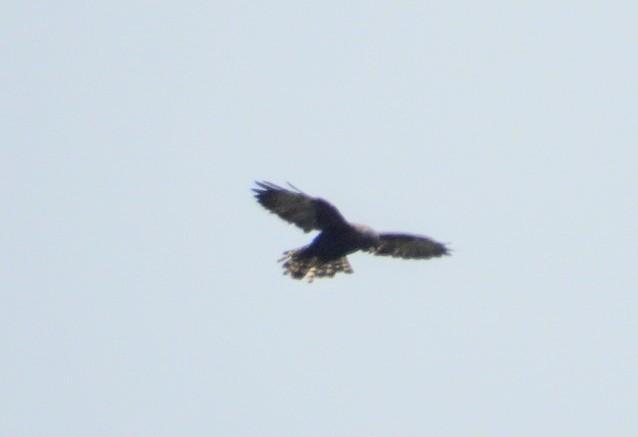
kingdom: Animalia
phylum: Chordata
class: Aves
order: Accipitriformes
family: Accipitridae
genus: Buteo
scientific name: Buteo brachyurus
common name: Short-tailed hawk
